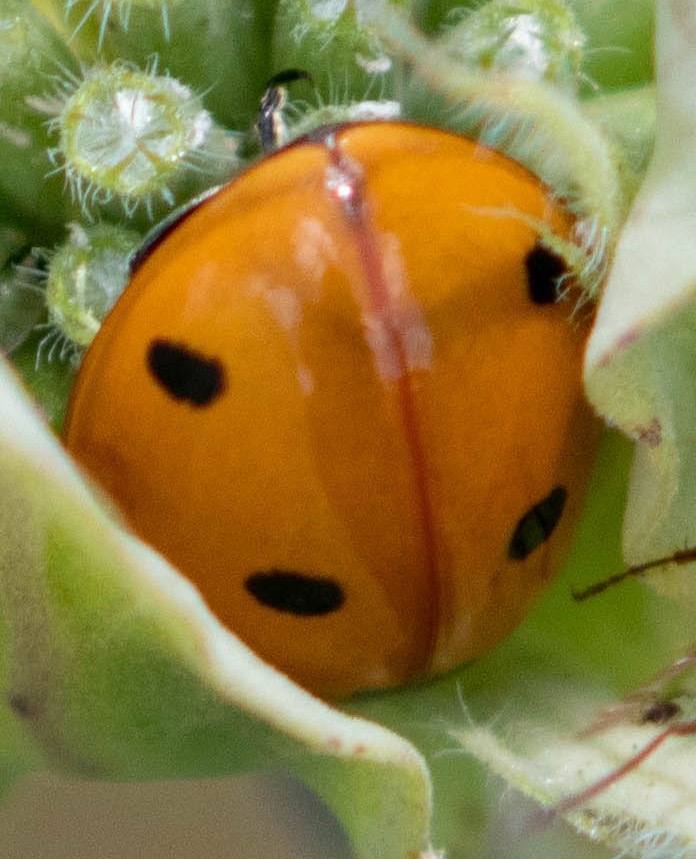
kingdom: Animalia
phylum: Arthropoda
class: Insecta
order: Coleoptera
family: Coccinellidae
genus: Coccinella
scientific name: Coccinella septempunctata
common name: Sevenspotted lady beetle
